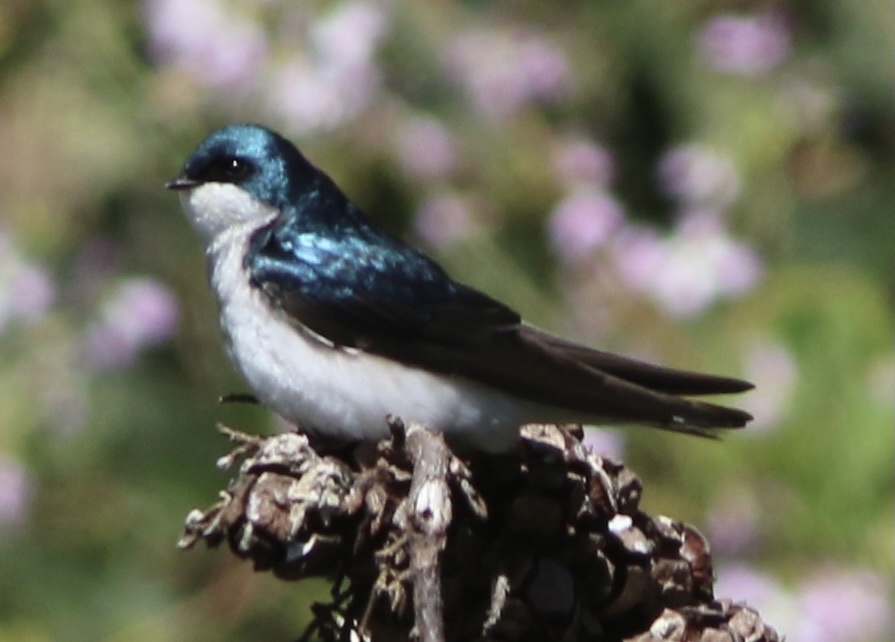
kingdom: Animalia
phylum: Chordata
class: Aves
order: Passeriformes
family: Hirundinidae
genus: Tachycineta
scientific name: Tachycineta bicolor
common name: Tree swallow
